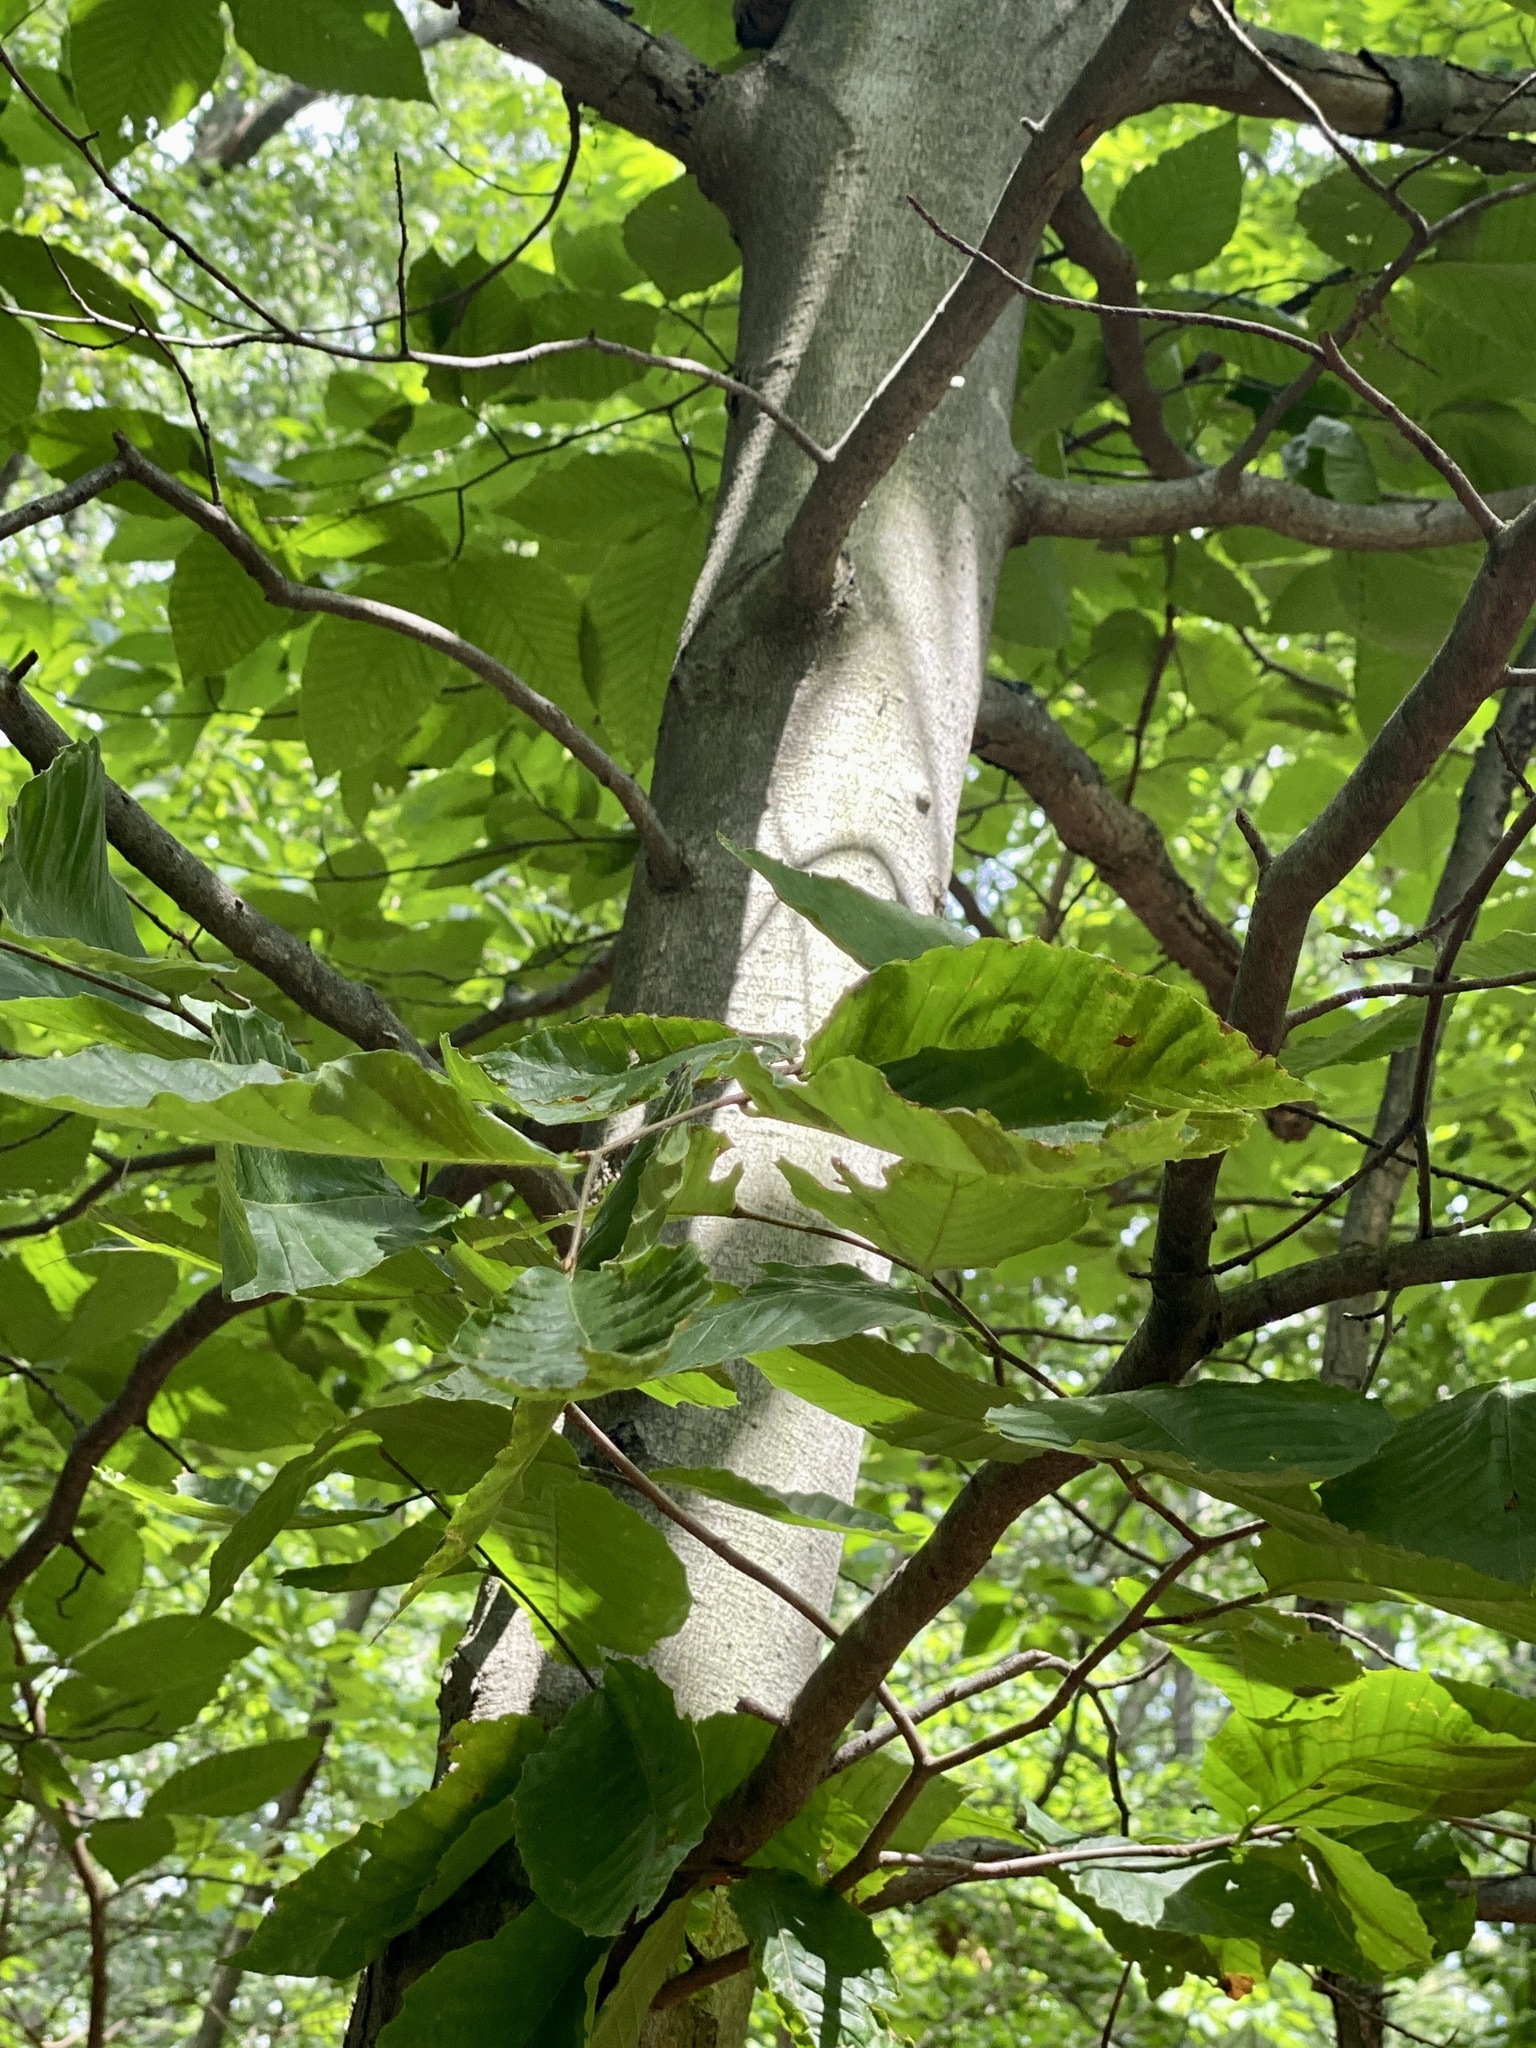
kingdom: Plantae
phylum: Tracheophyta
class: Magnoliopsida
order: Fagales
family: Fagaceae
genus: Fagus
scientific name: Fagus grandifolia
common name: American beech
